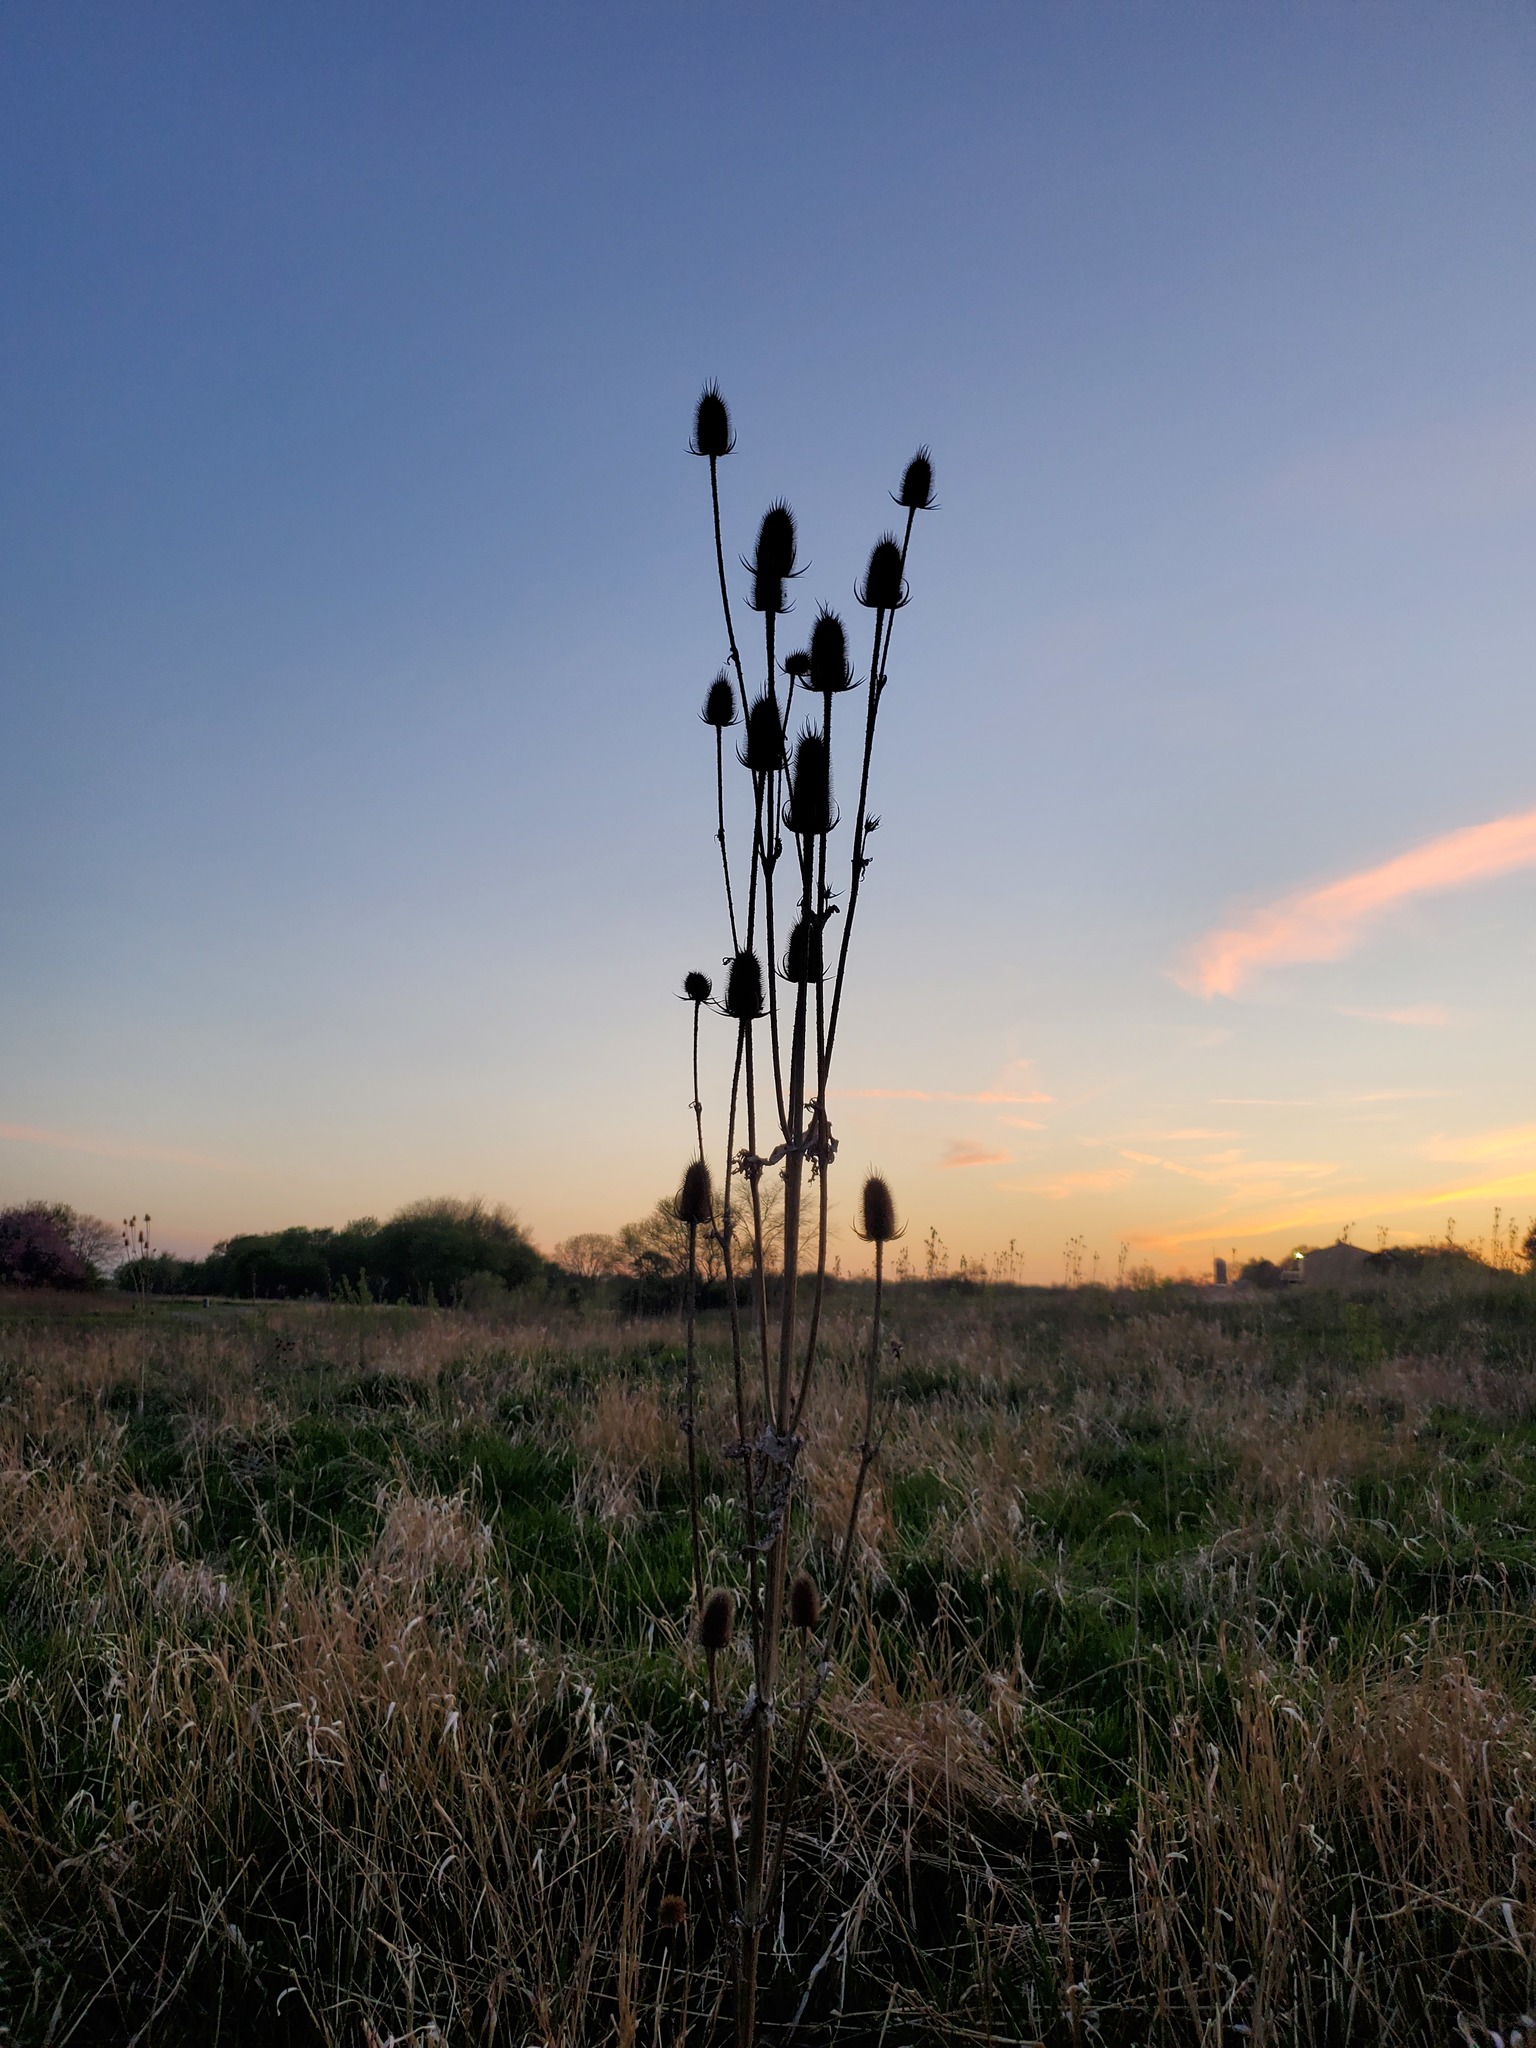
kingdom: Plantae
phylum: Tracheophyta
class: Magnoliopsida
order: Dipsacales
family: Caprifoliaceae
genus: Dipsacus
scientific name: Dipsacus laciniatus
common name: Cut-leaved teasel
